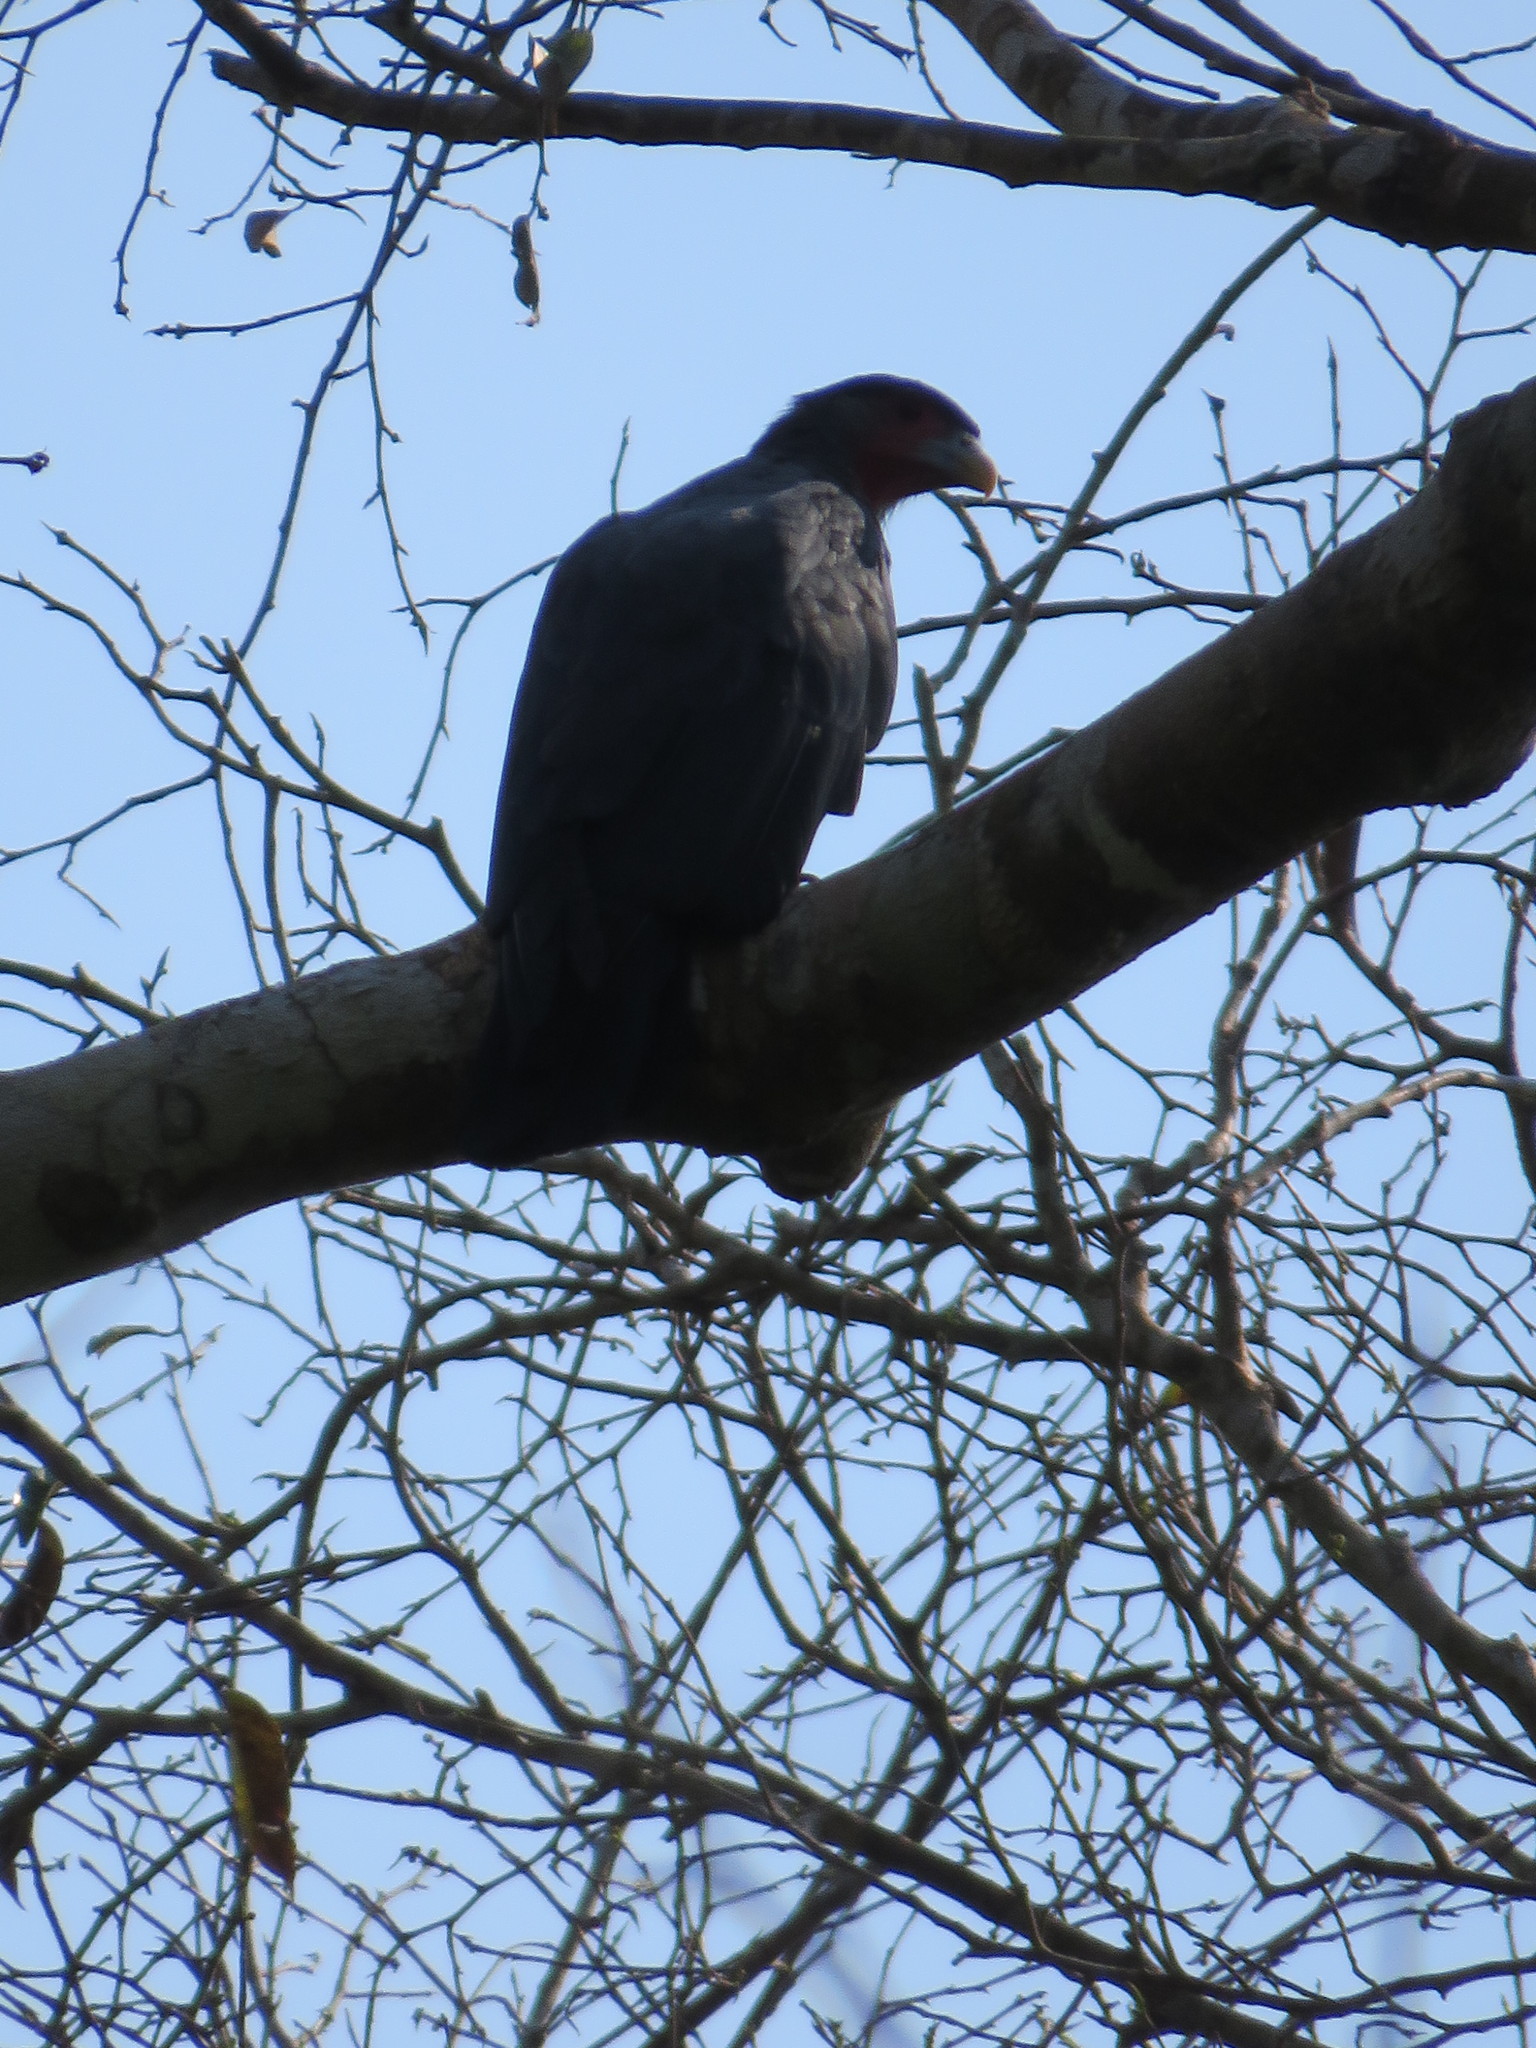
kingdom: Animalia
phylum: Chordata
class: Aves
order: Falconiformes
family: Falconidae
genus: Ibycter
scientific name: Ibycter americanus
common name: Red-throated caracara
